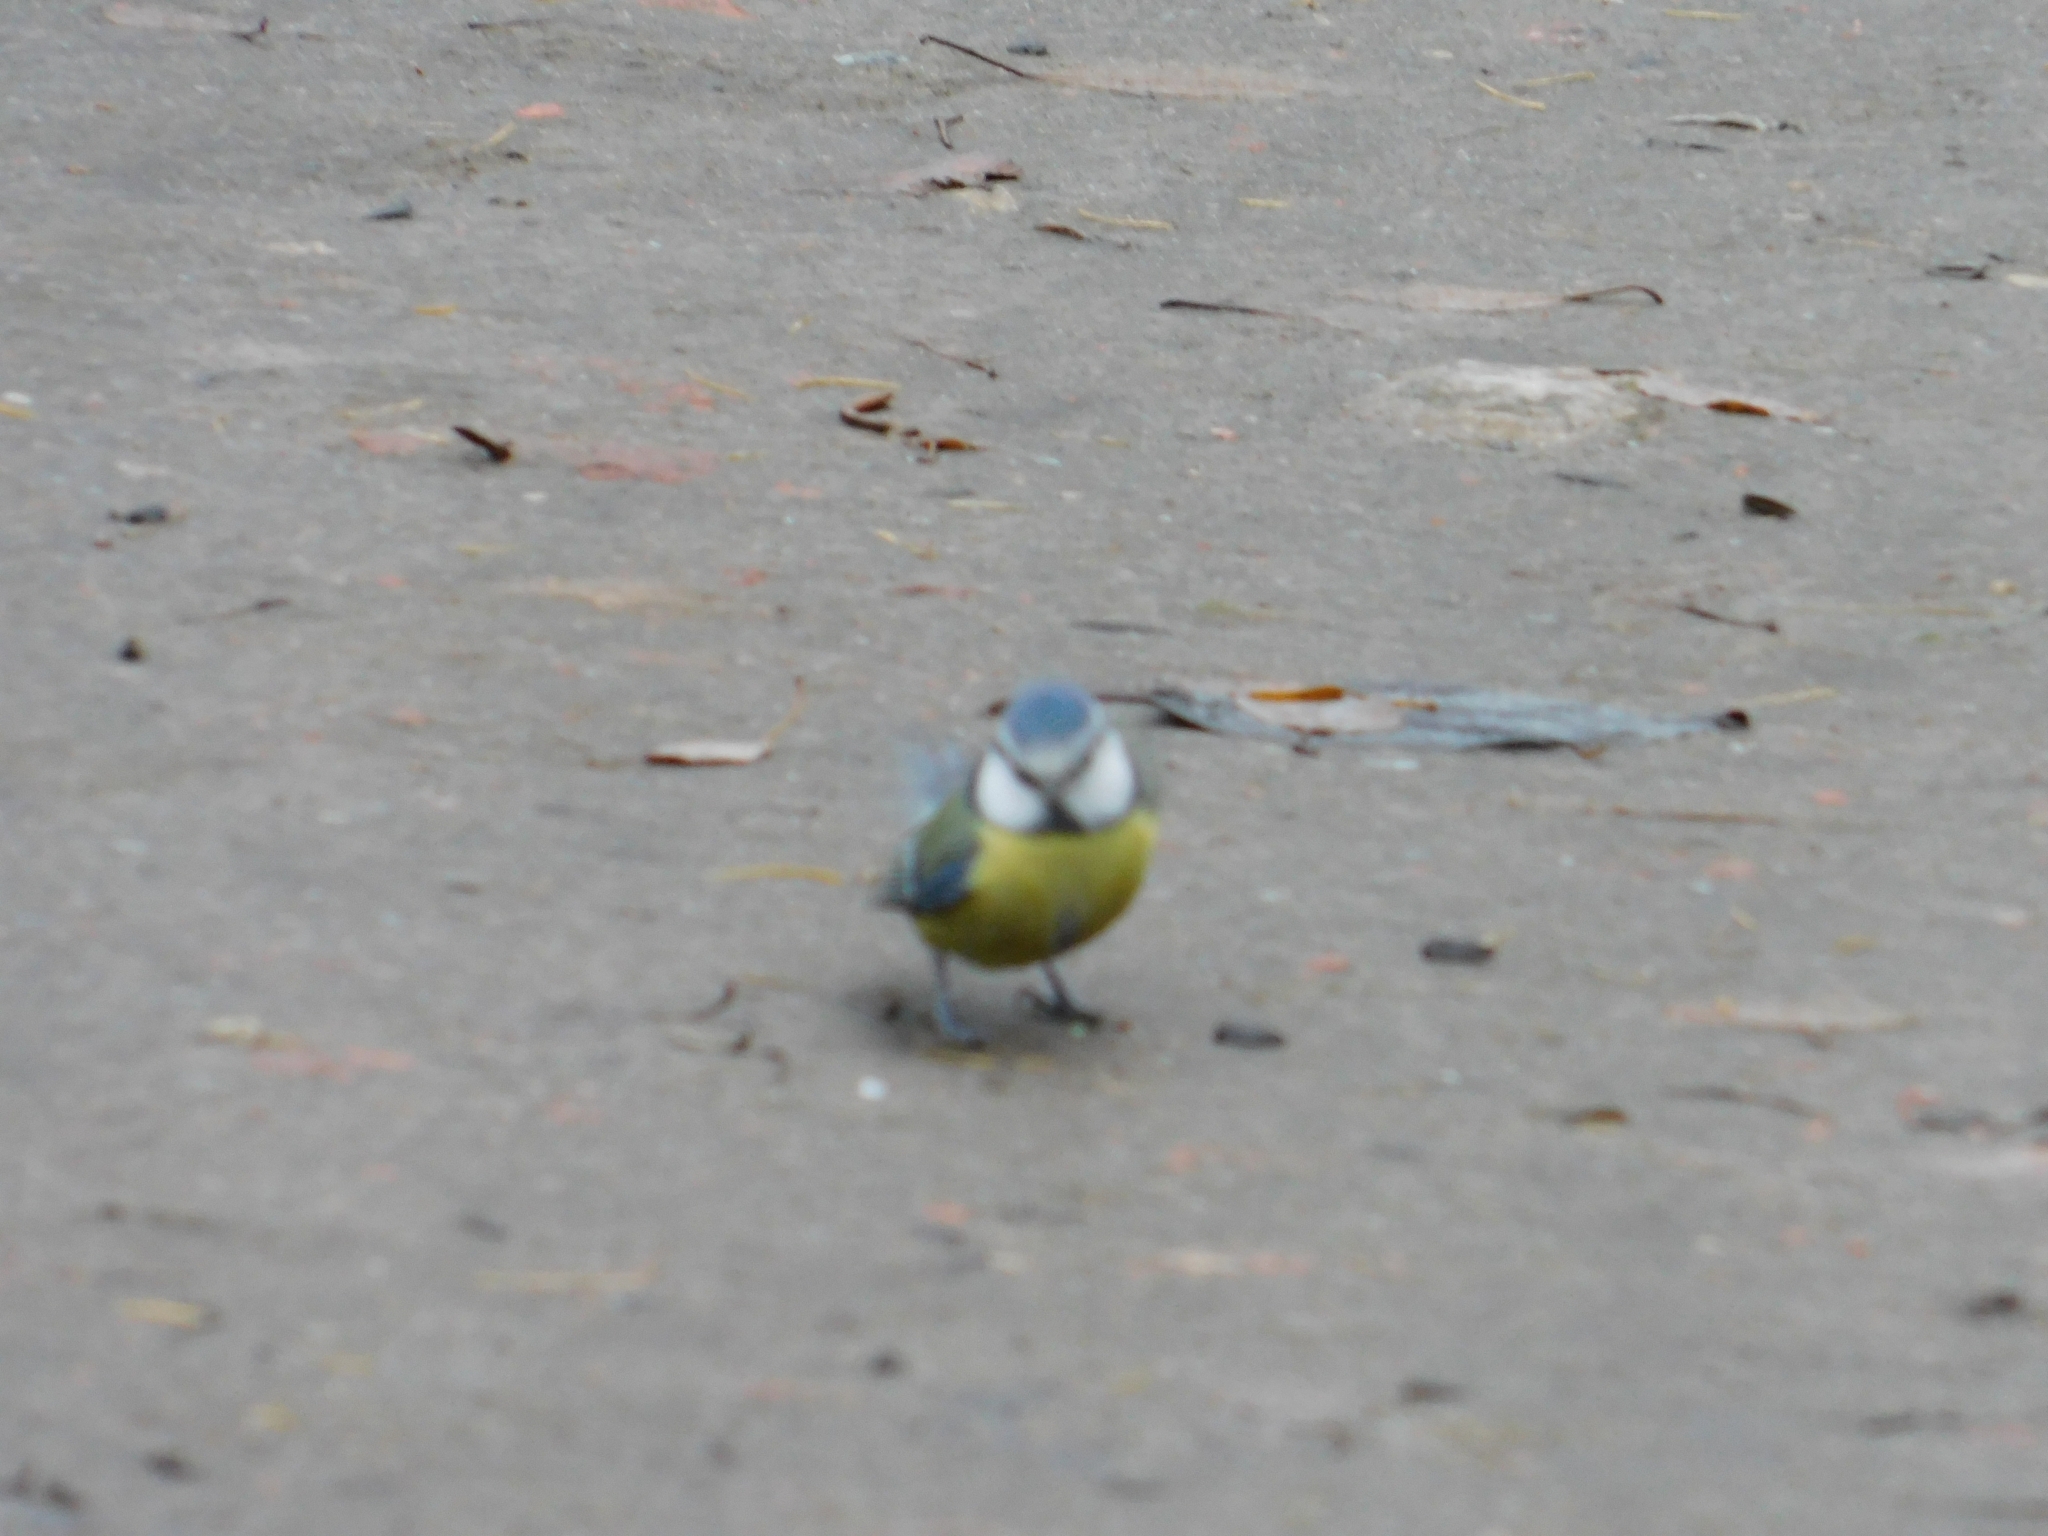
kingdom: Animalia
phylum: Chordata
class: Aves
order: Passeriformes
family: Paridae
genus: Cyanistes
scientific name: Cyanistes caeruleus
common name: Eurasian blue tit
